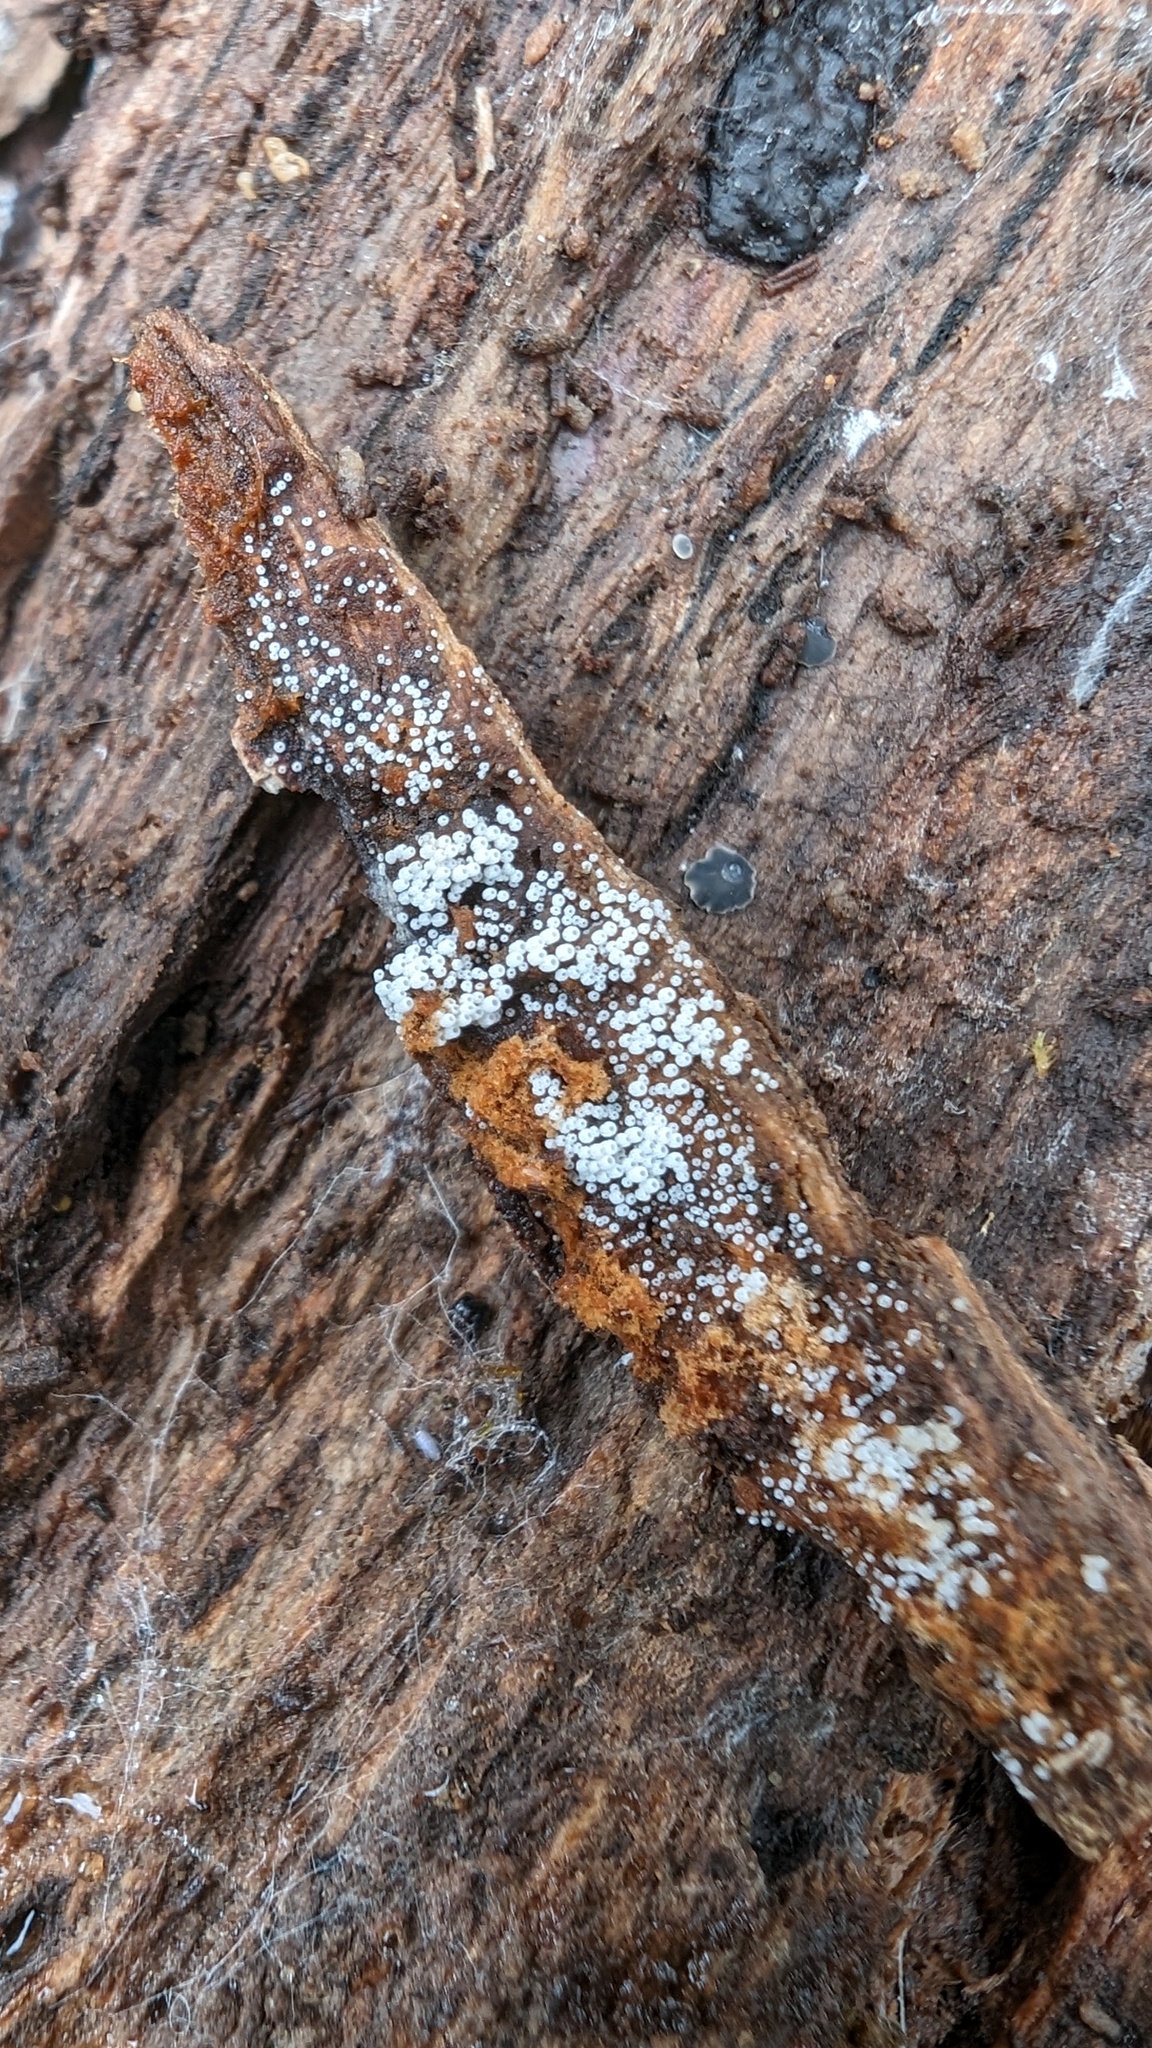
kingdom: Fungi
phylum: Basidiomycota
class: Agaricomycetes
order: Agaricales
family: Marasmiaceae
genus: Henningsomyces
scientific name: Henningsomyces candidus
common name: White tubelet
